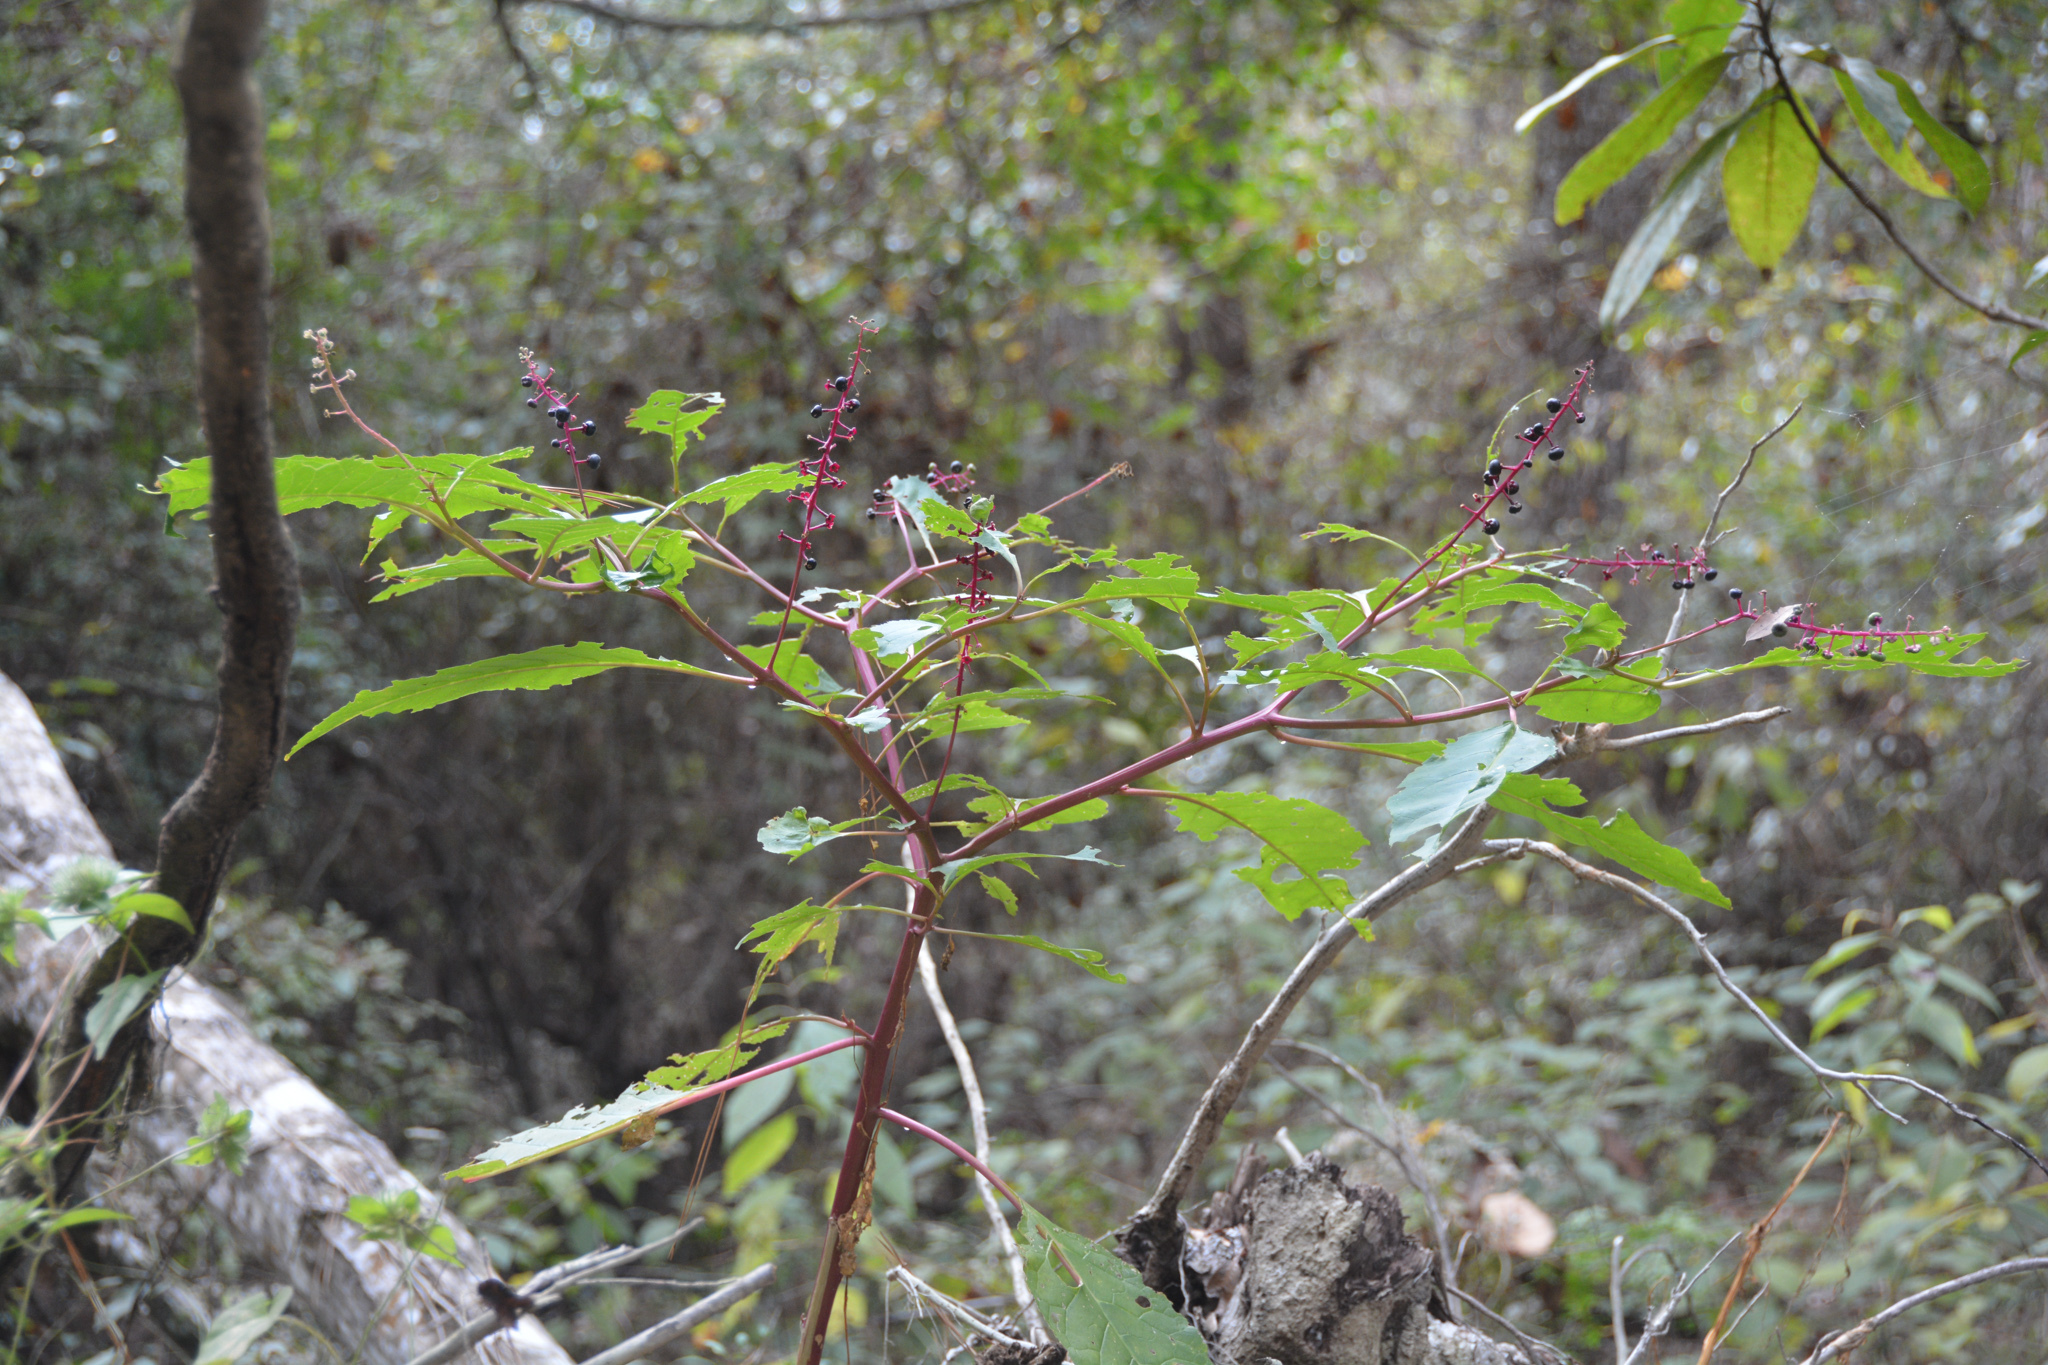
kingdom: Plantae
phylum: Tracheophyta
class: Magnoliopsida
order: Caryophyllales
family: Phytolaccaceae
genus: Phytolacca
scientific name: Phytolacca americana
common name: American pokeweed
